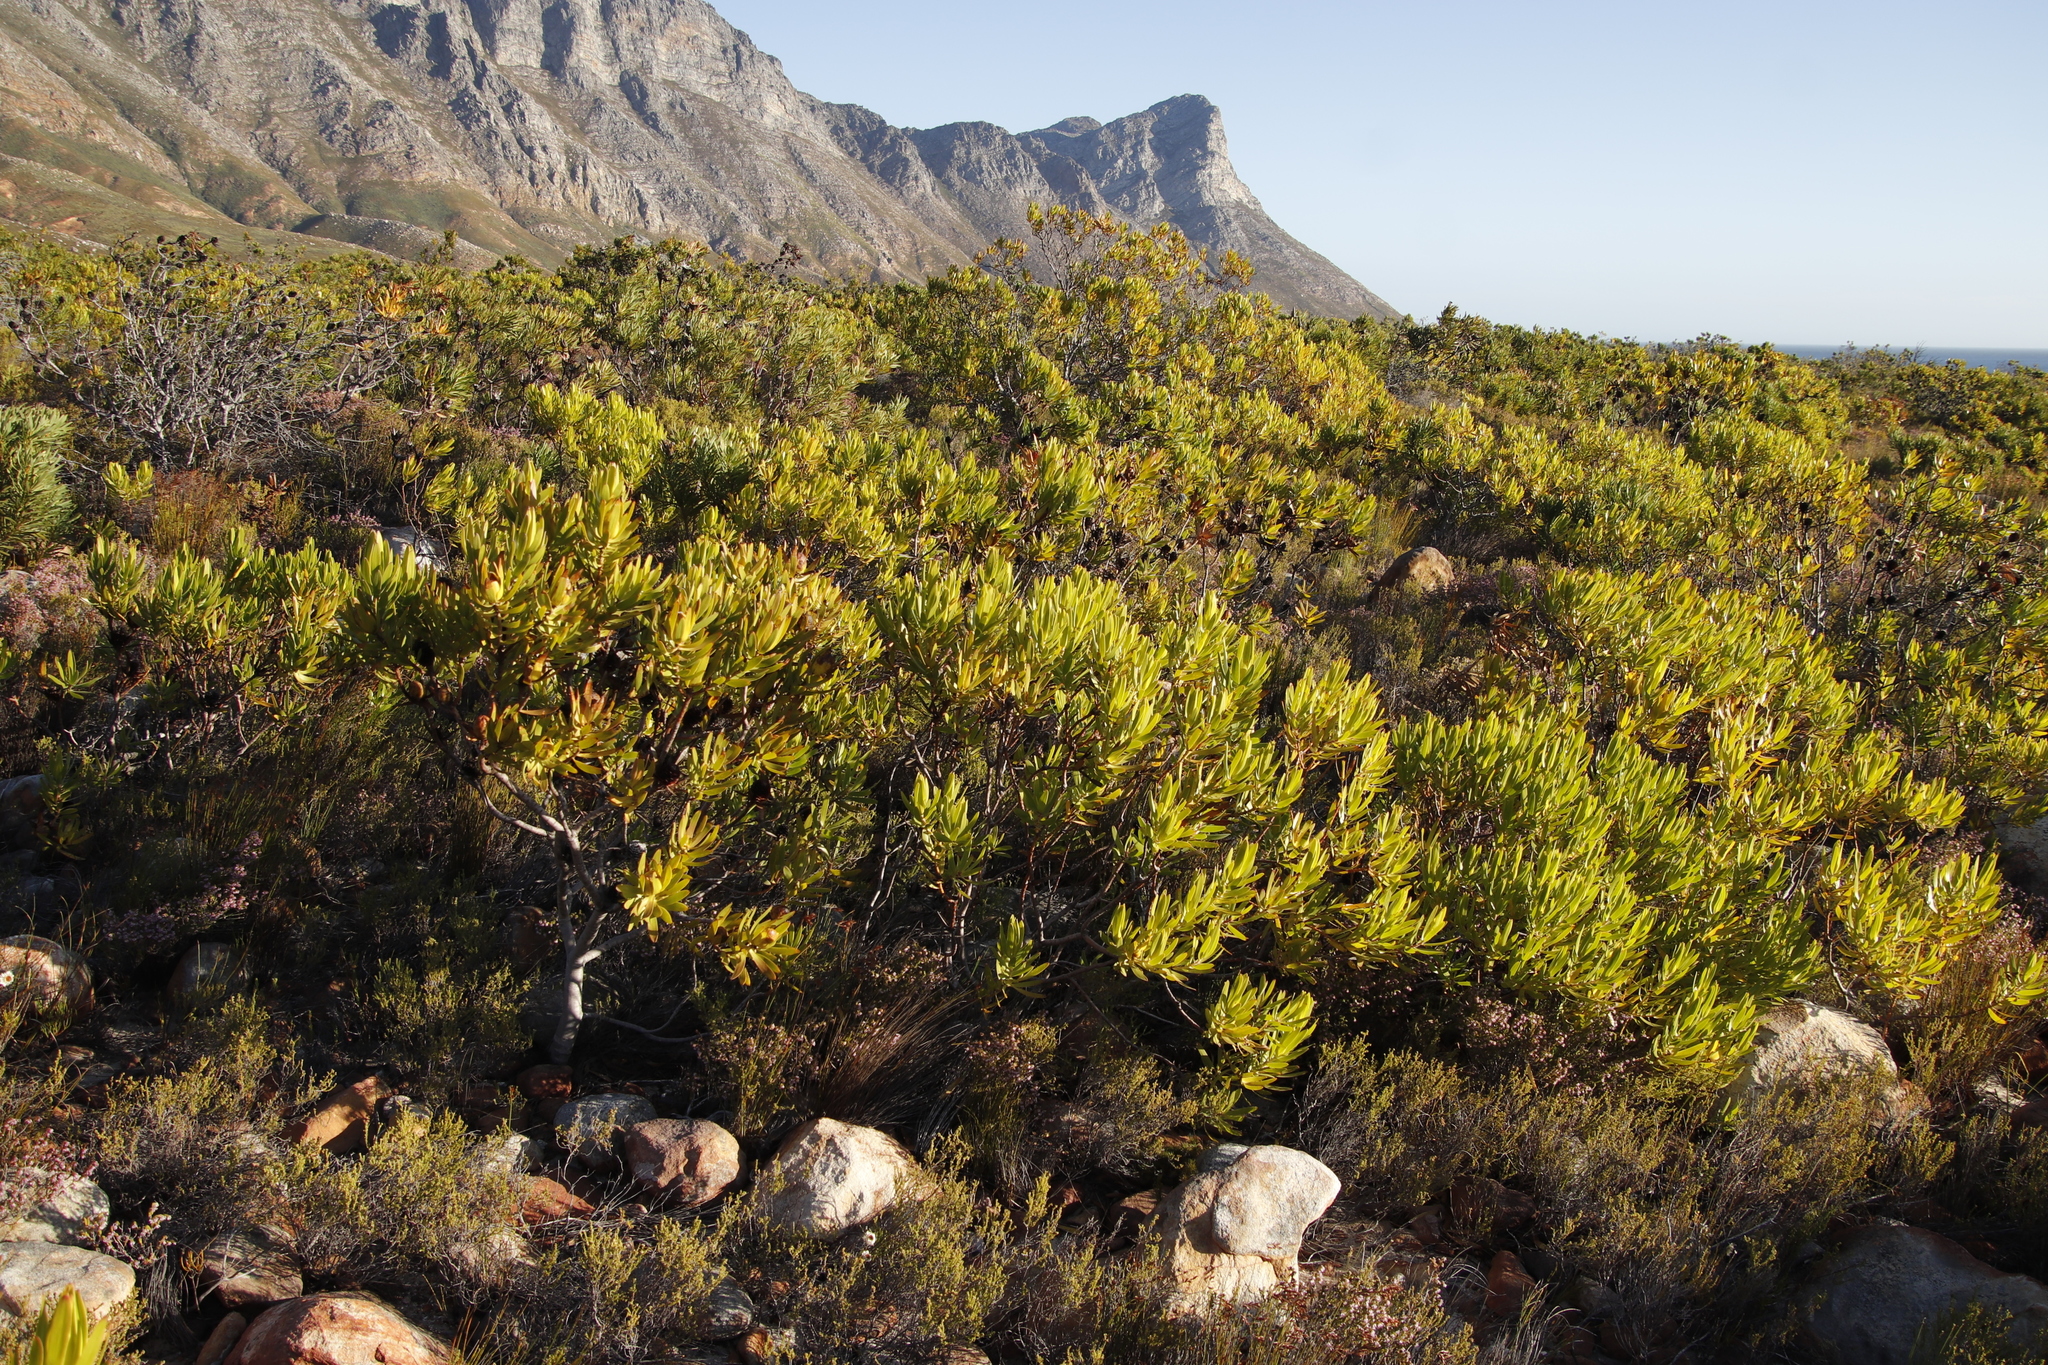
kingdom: Plantae
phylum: Tracheophyta
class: Magnoliopsida
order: Proteales
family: Proteaceae
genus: Leucadendron
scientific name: Leucadendron laureolum
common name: Golden sunshinebush
